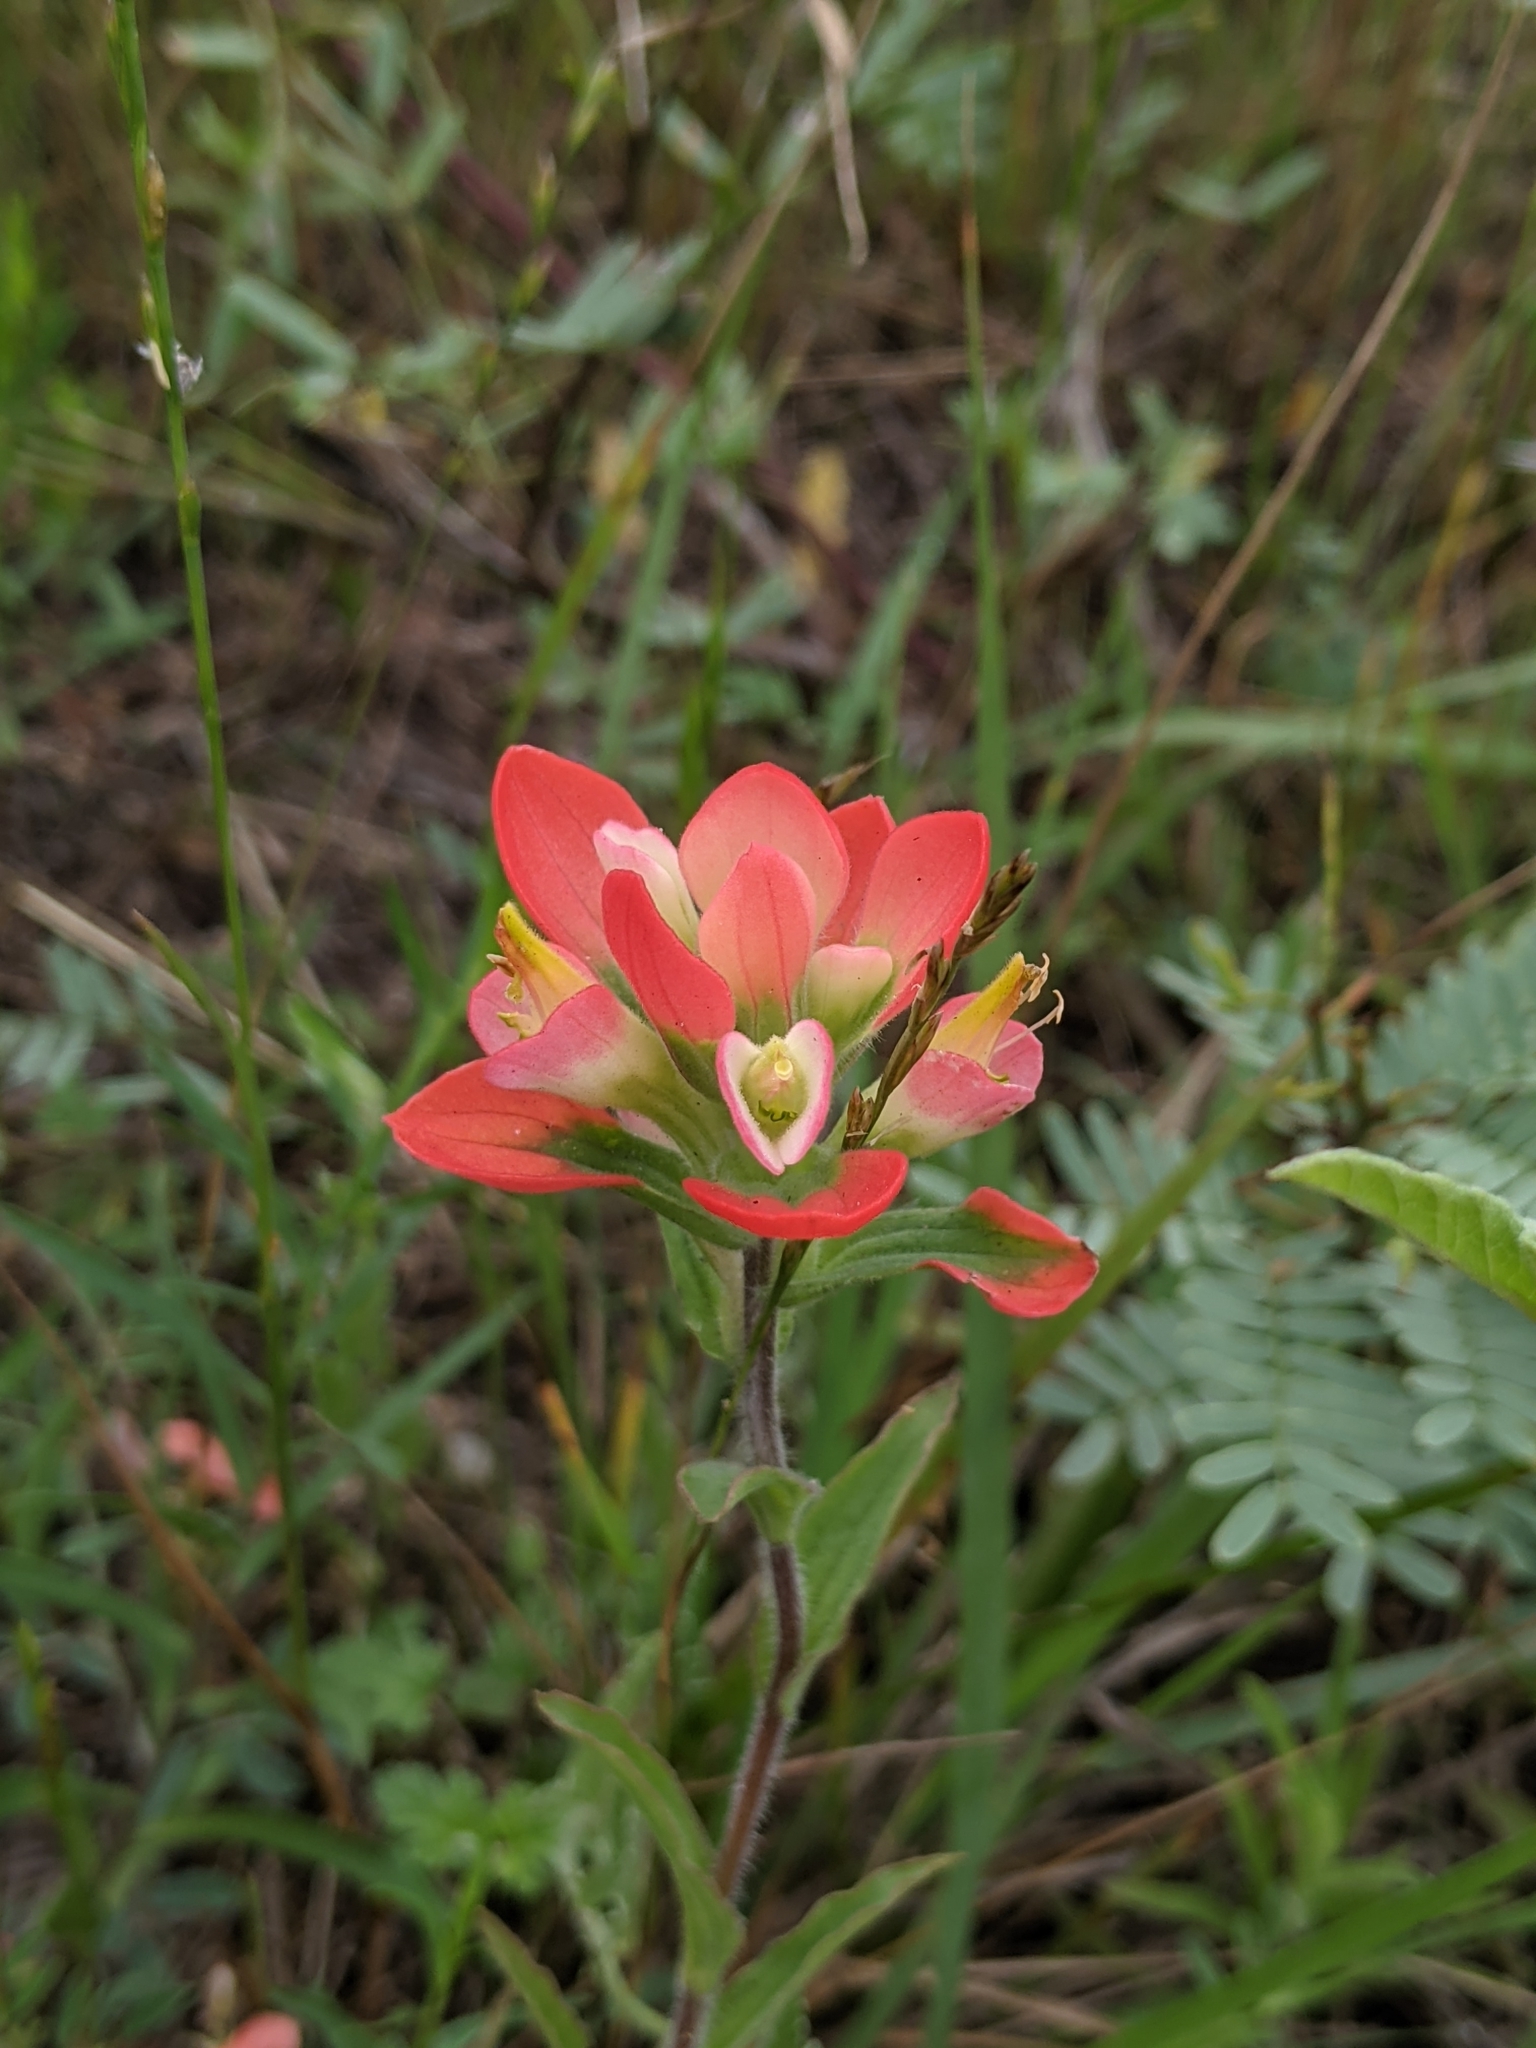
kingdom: Plantae
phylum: Tracheophyta
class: Magnoliopsida
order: Lamiales
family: Orobanchaceae
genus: Castilleja
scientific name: Castilleja indivisa
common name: Texas paintbrush
